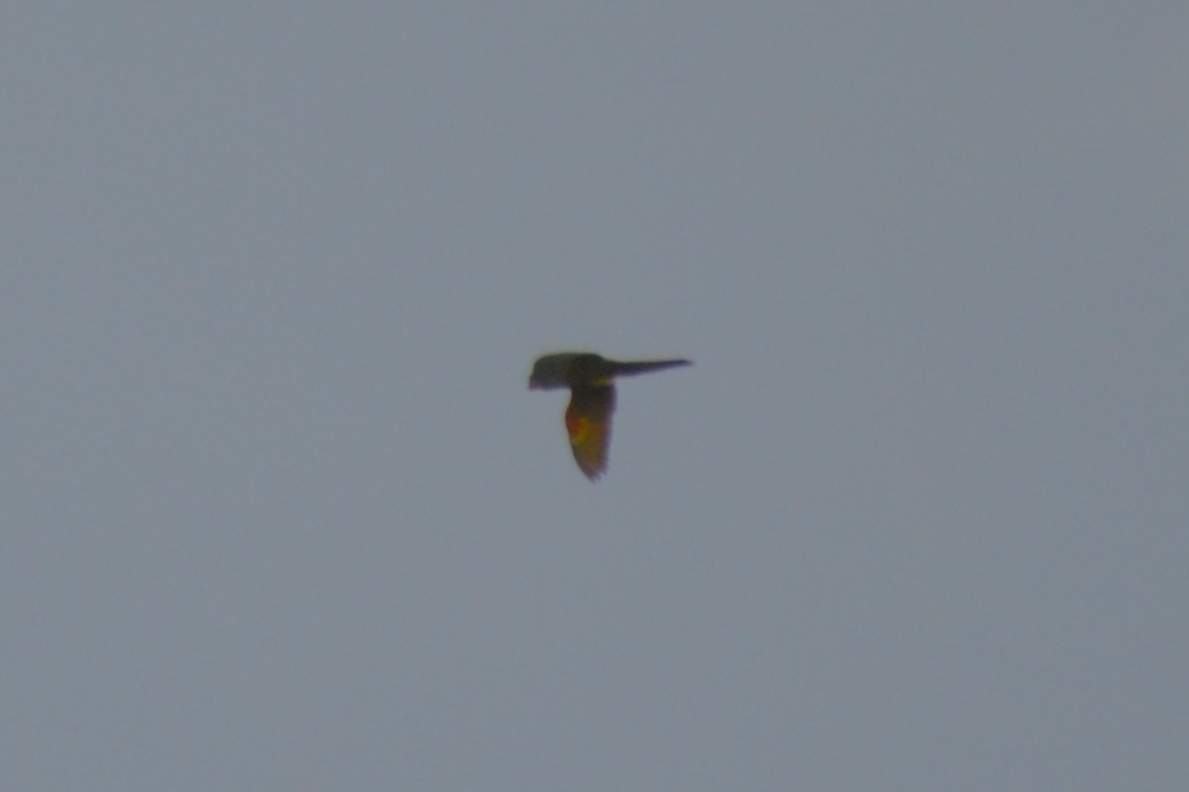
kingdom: Animalia
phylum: Chordata
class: Aves
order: Psittaciformes
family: Psittacidae
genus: Aratinga
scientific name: Aratinga leucophthalma
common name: White-eyed parakeet
